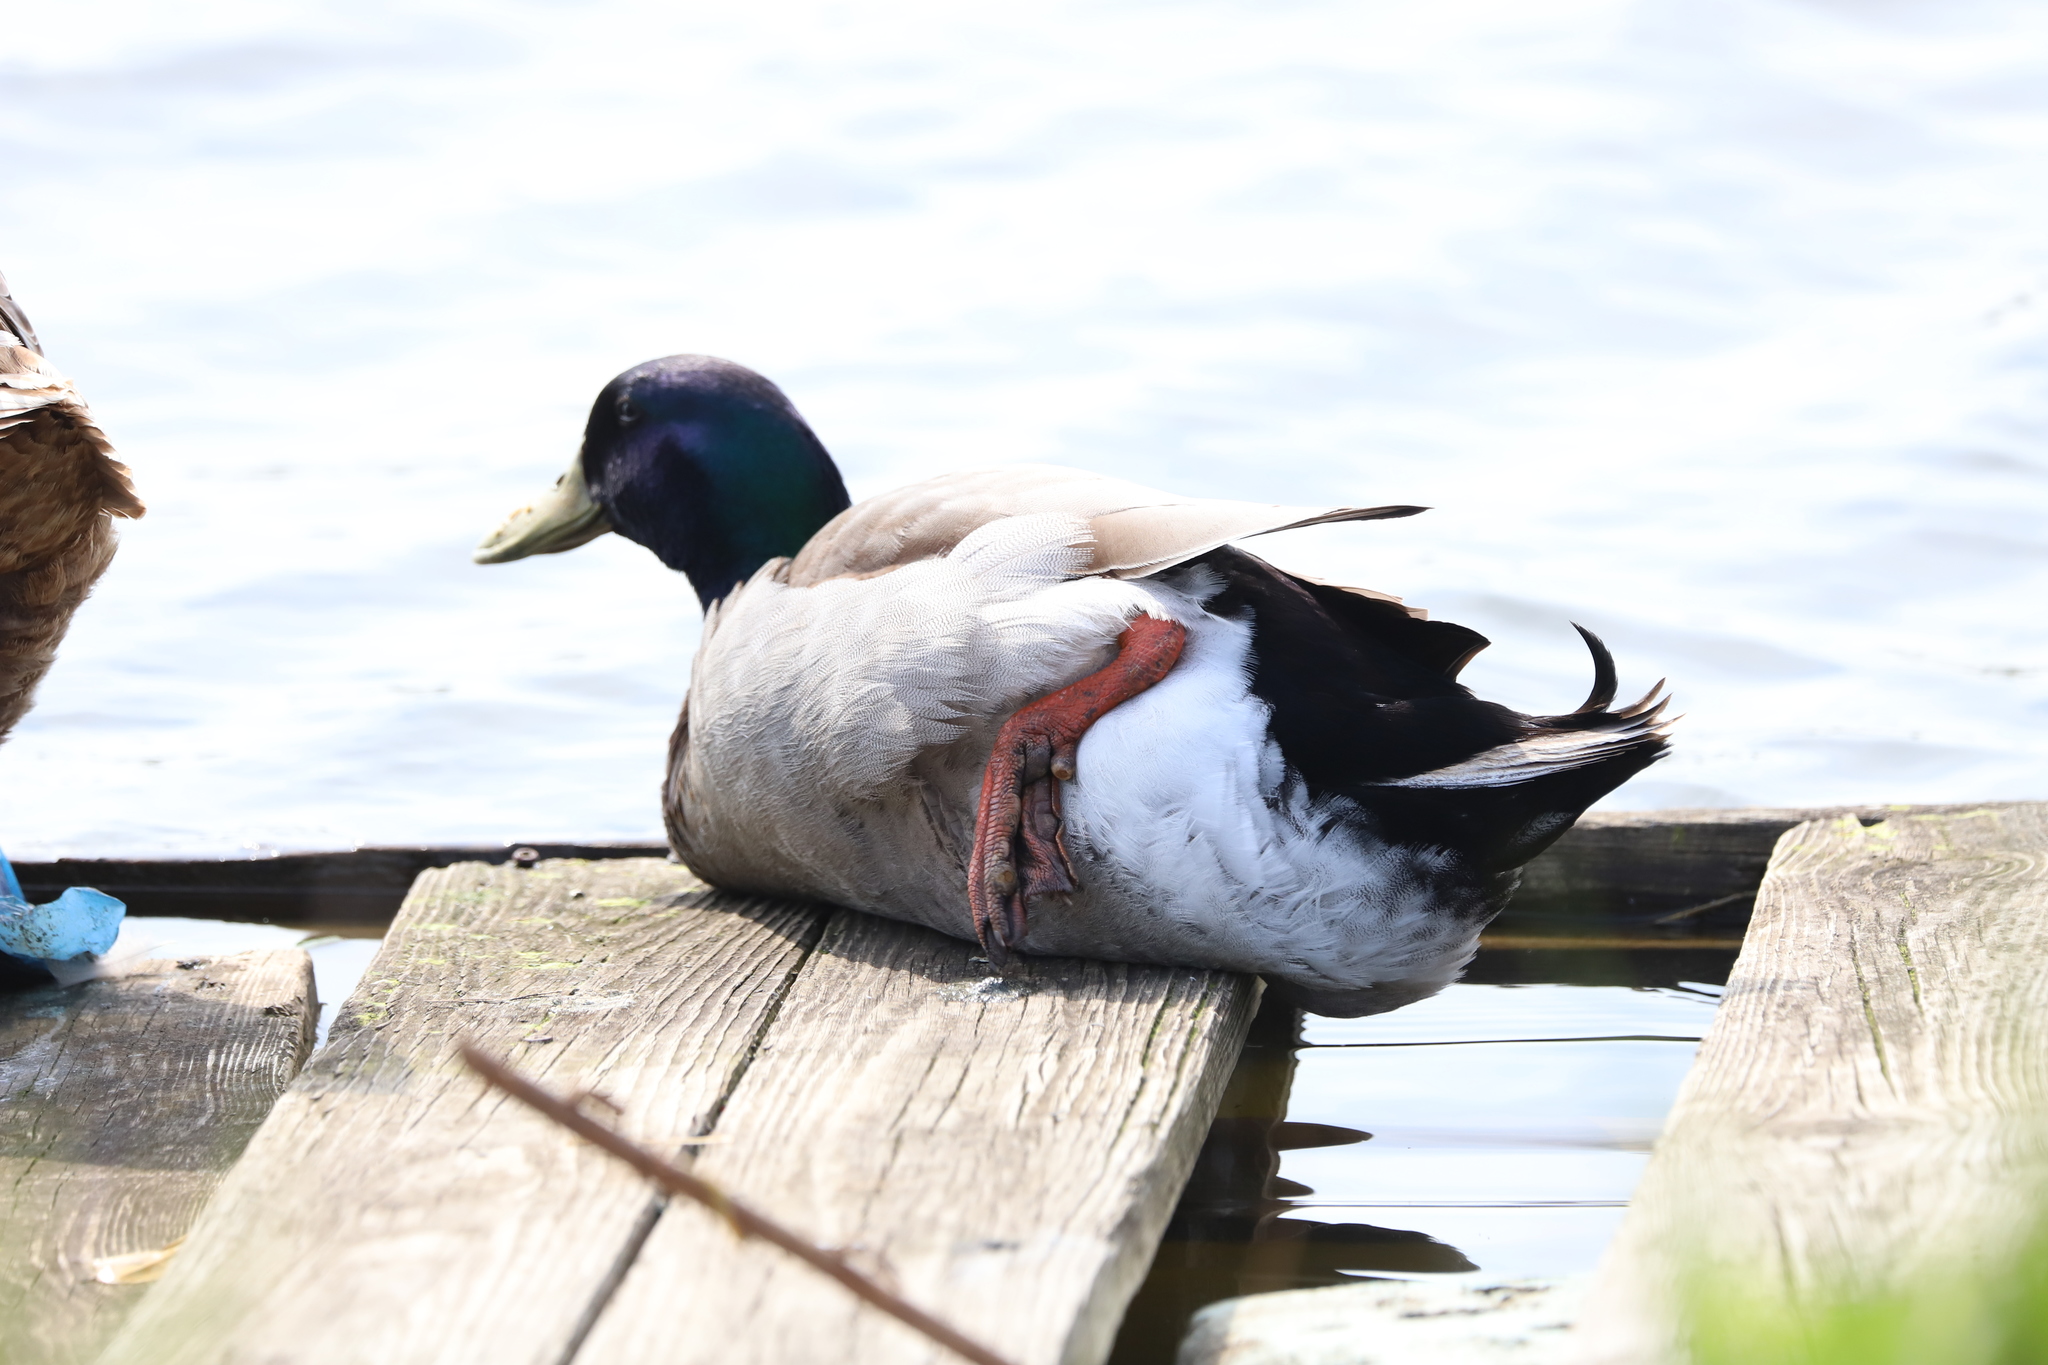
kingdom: Animalia
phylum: Chordata
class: Aves
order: Anseriformes
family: Anatidae
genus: Anas
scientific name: Anas platyrhynchos
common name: Mallard
